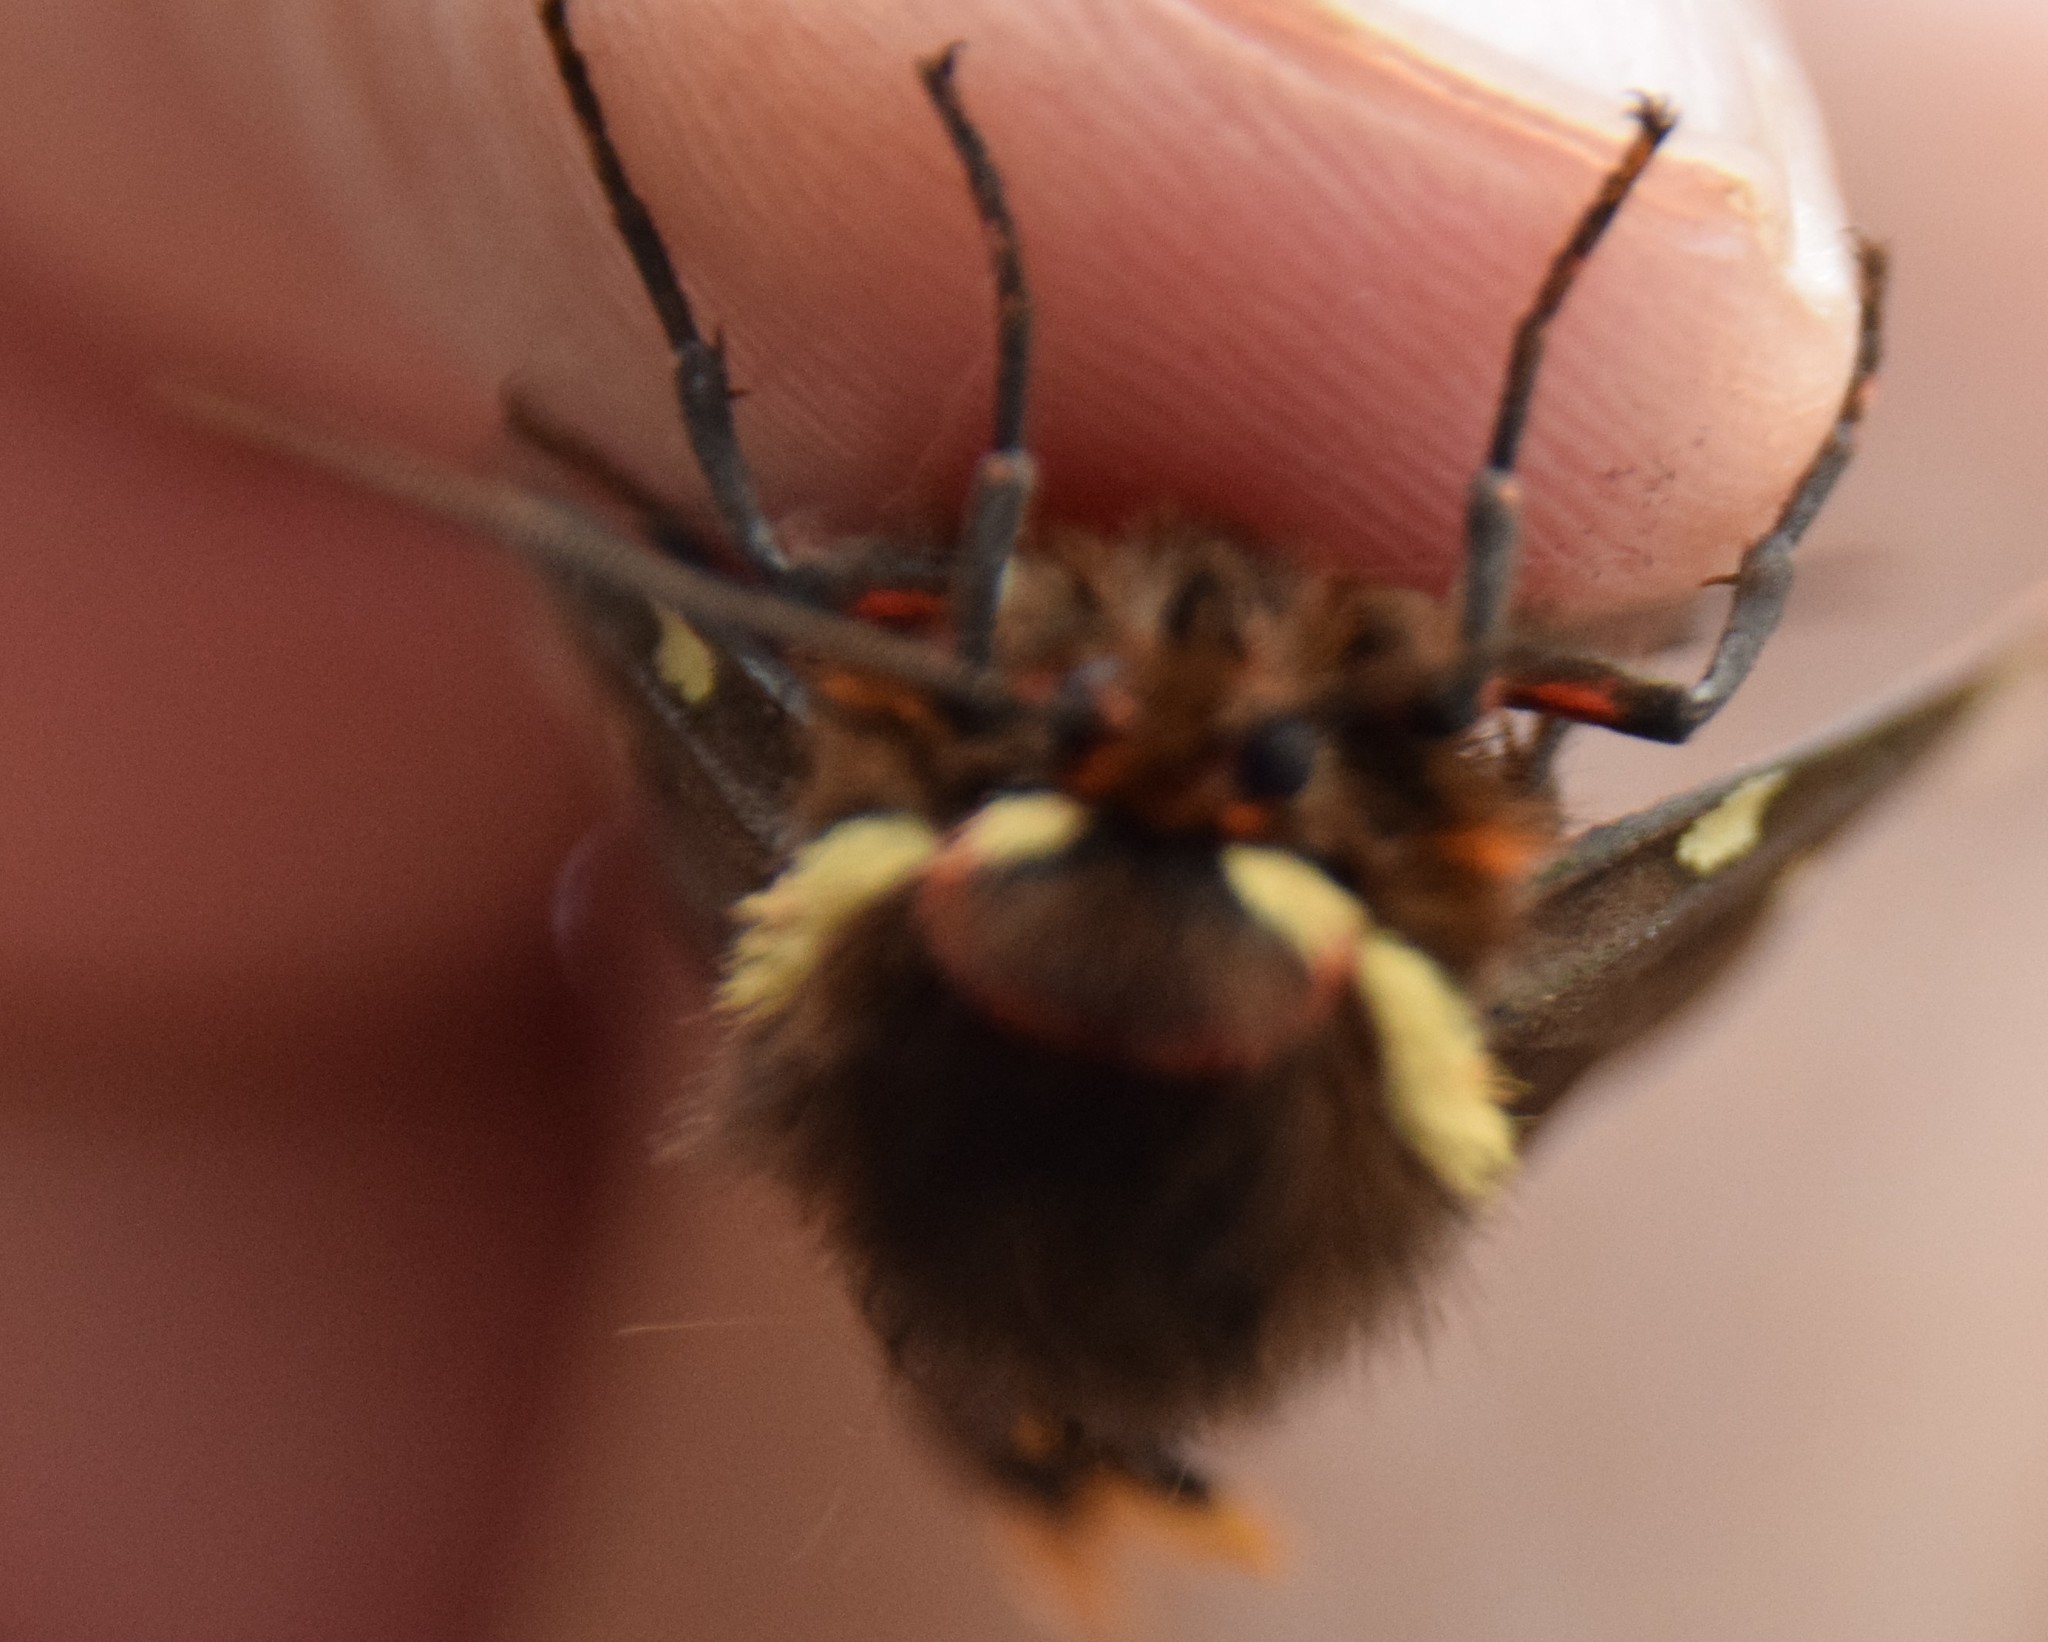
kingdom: Animalia
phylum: Arthropoda
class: Insecta
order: Lepidoptera
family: Erebidae
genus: Arctia
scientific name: Arctia parthenos
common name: St. lawrence tiger moth
